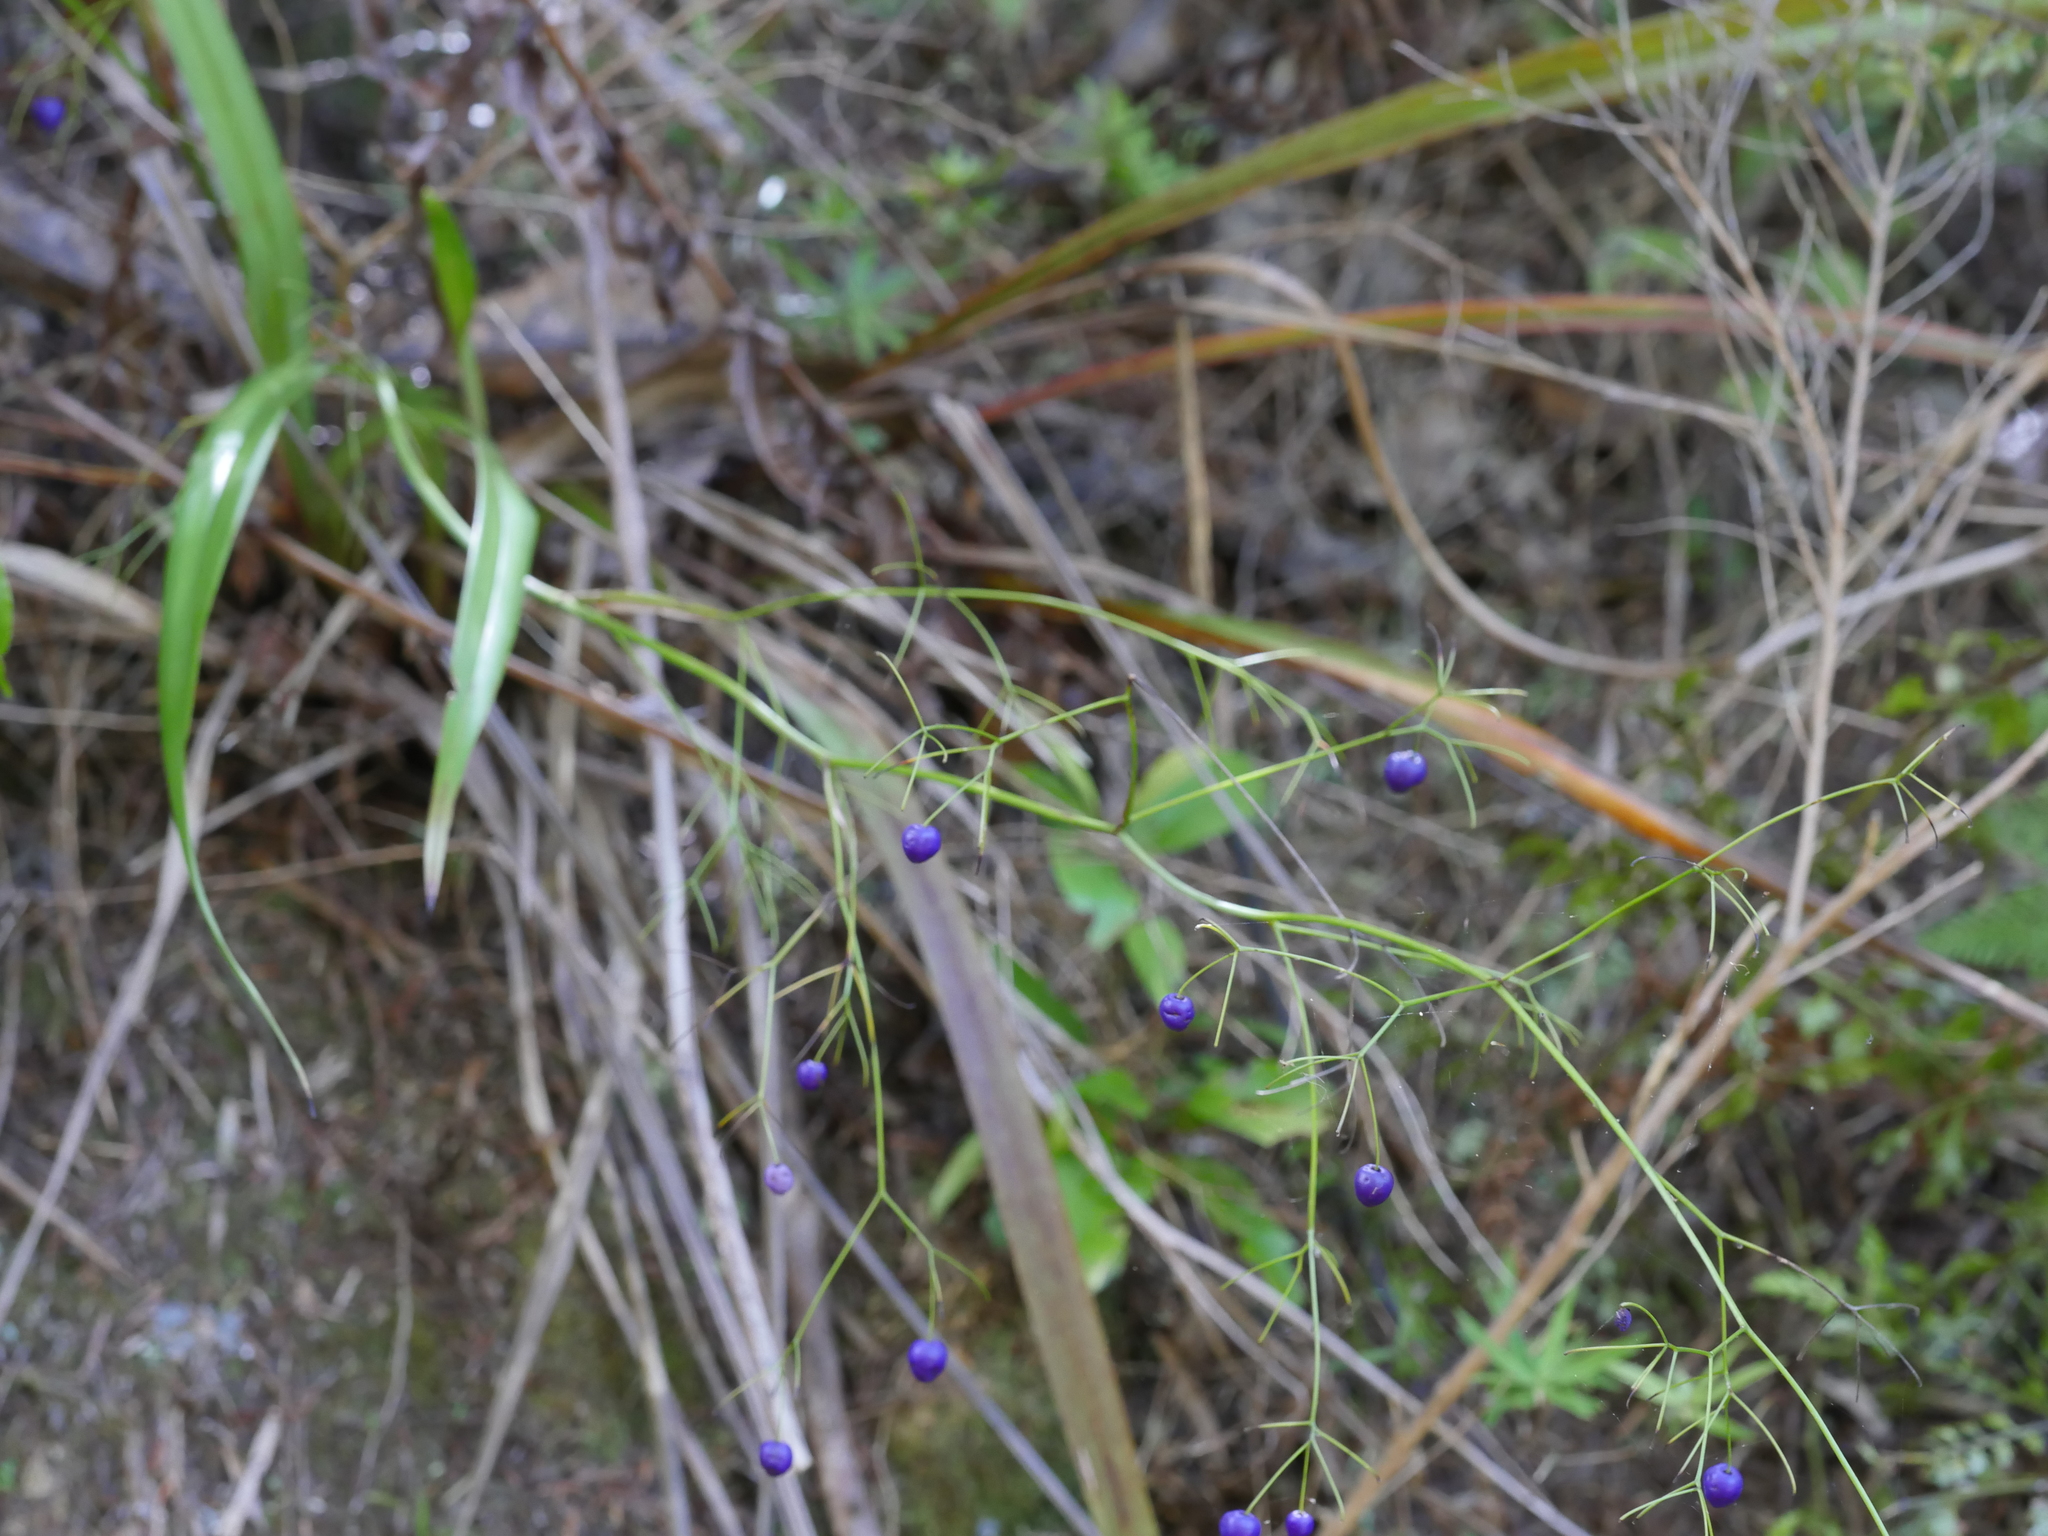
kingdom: Plantae
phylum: Tracheophyta
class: Liliopsida
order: Asparagales
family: Asphodelaceae
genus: Dianella
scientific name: Dianella nigra
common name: New zealand-blueberry
